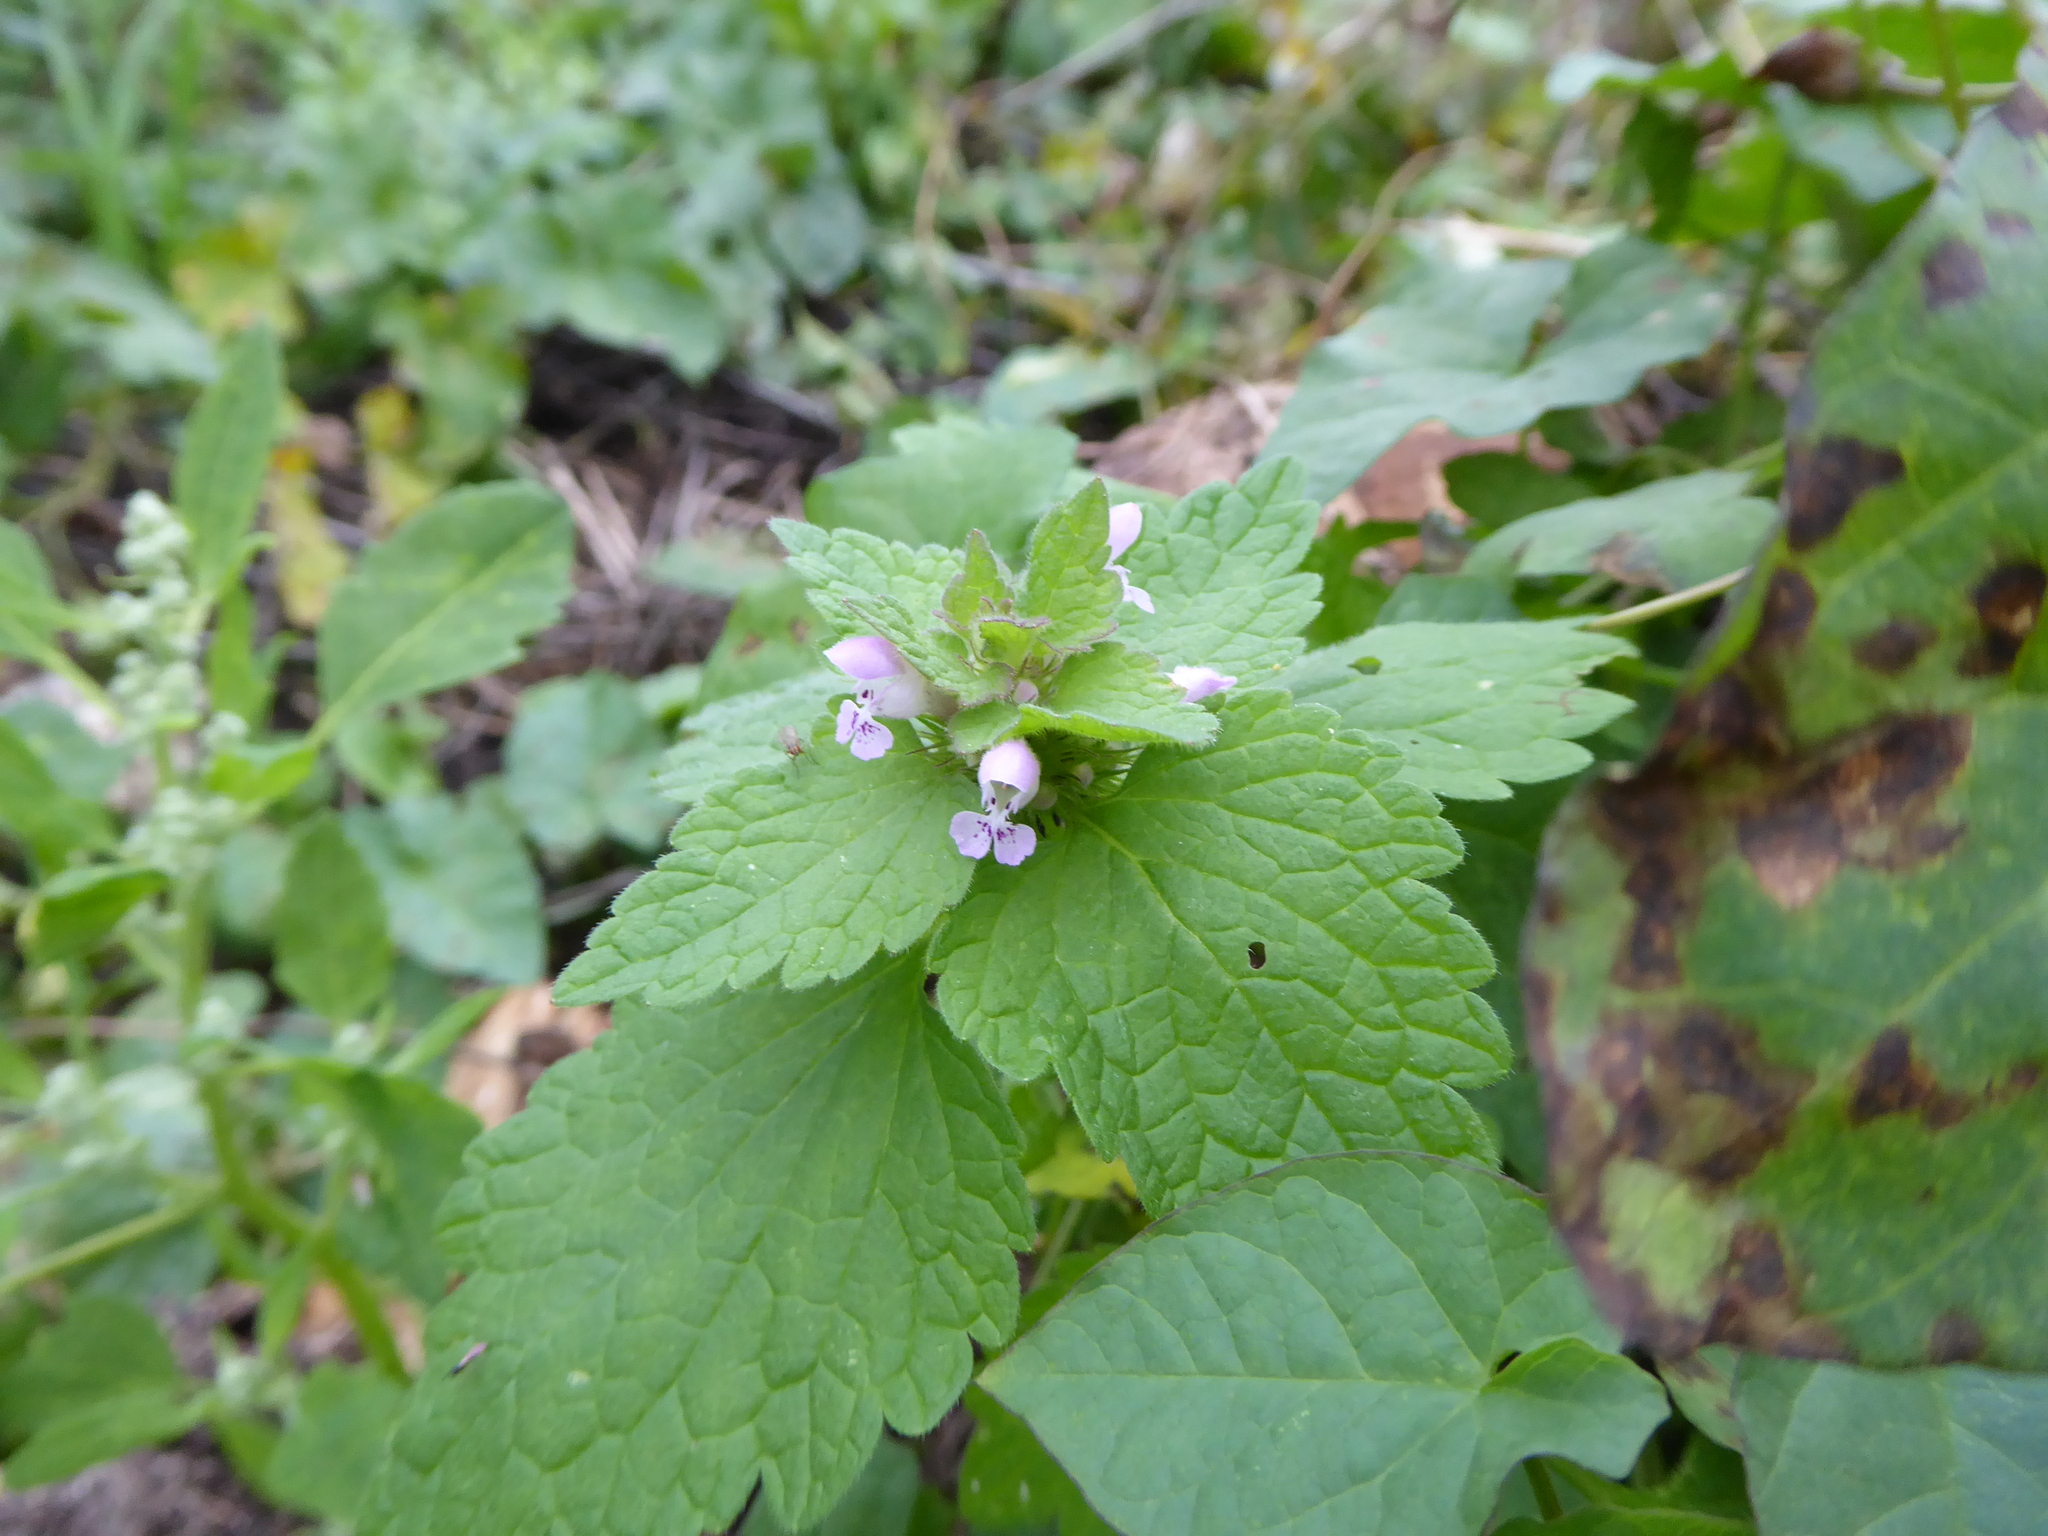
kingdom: Plantae
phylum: Tracheophyta
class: Magnoliopsida
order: Lamiales
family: Lamiaceae
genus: Lamium
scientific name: Lamium purpureum
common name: Red dead-nettle
